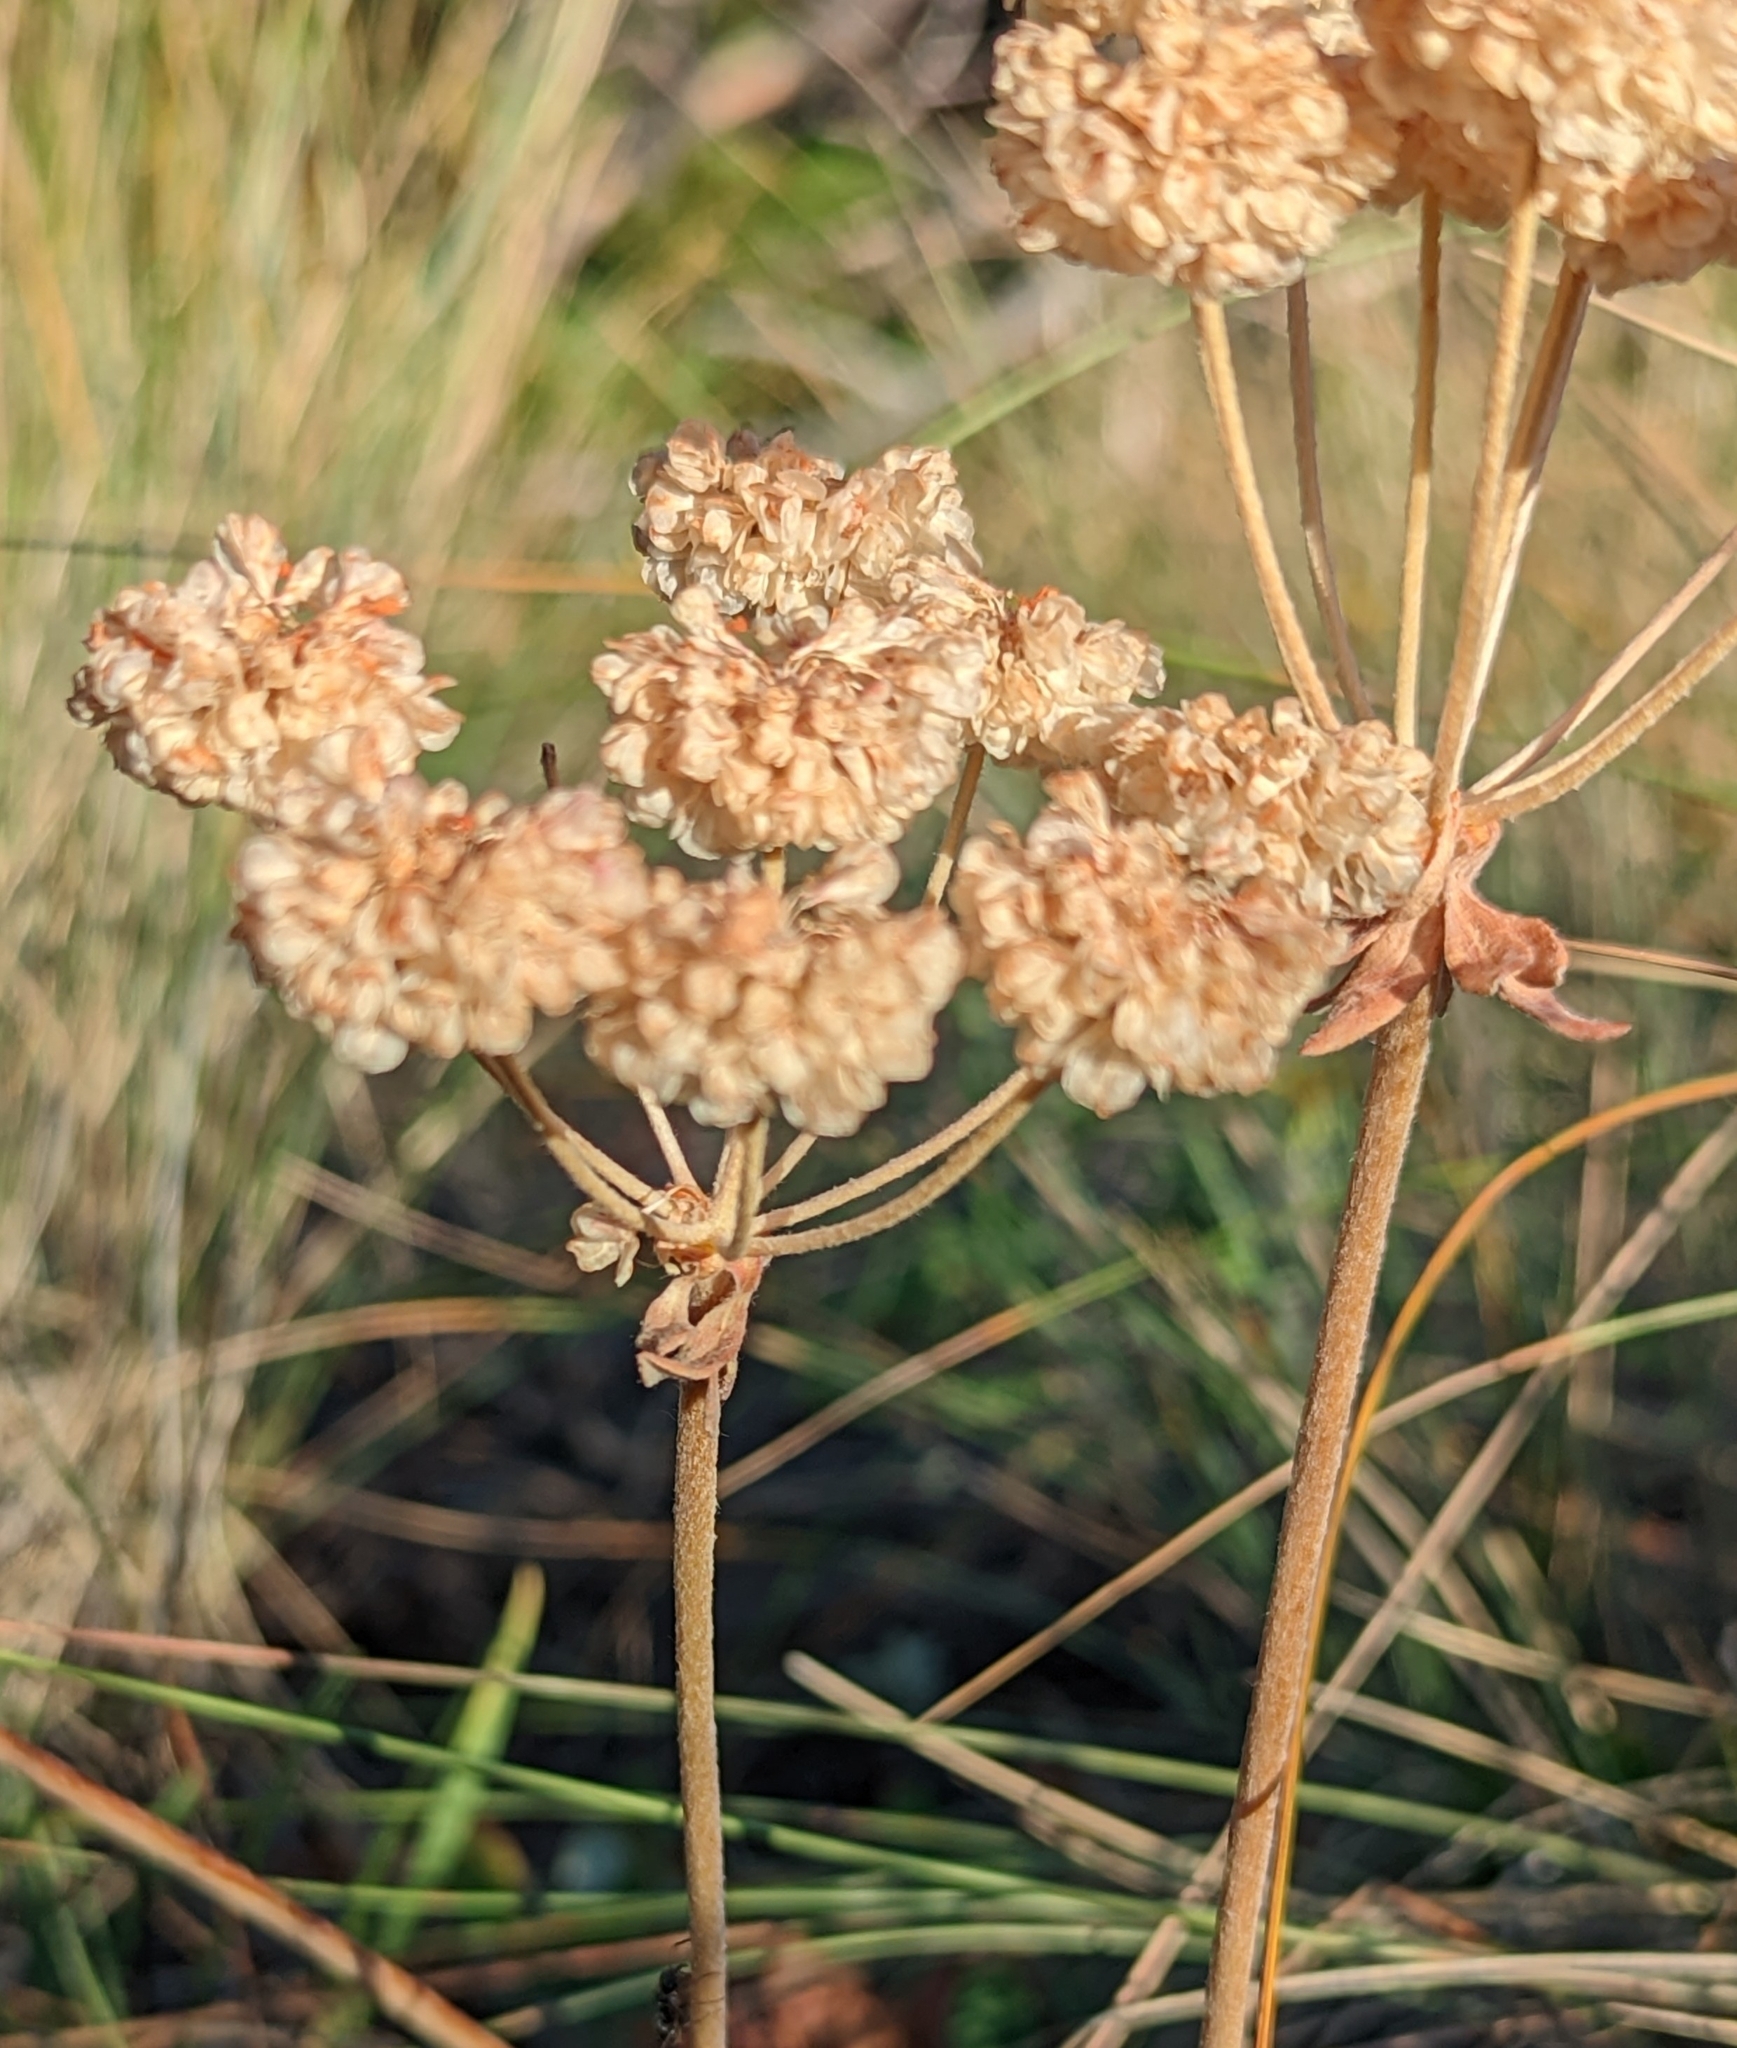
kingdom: Plantae
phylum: Tracheophyta
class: Magnoliopsida
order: Caryophyllales
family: Polygonaceae
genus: Eriogonum
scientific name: Eriogonum umbellatum
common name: Sulfur-buckwheat
